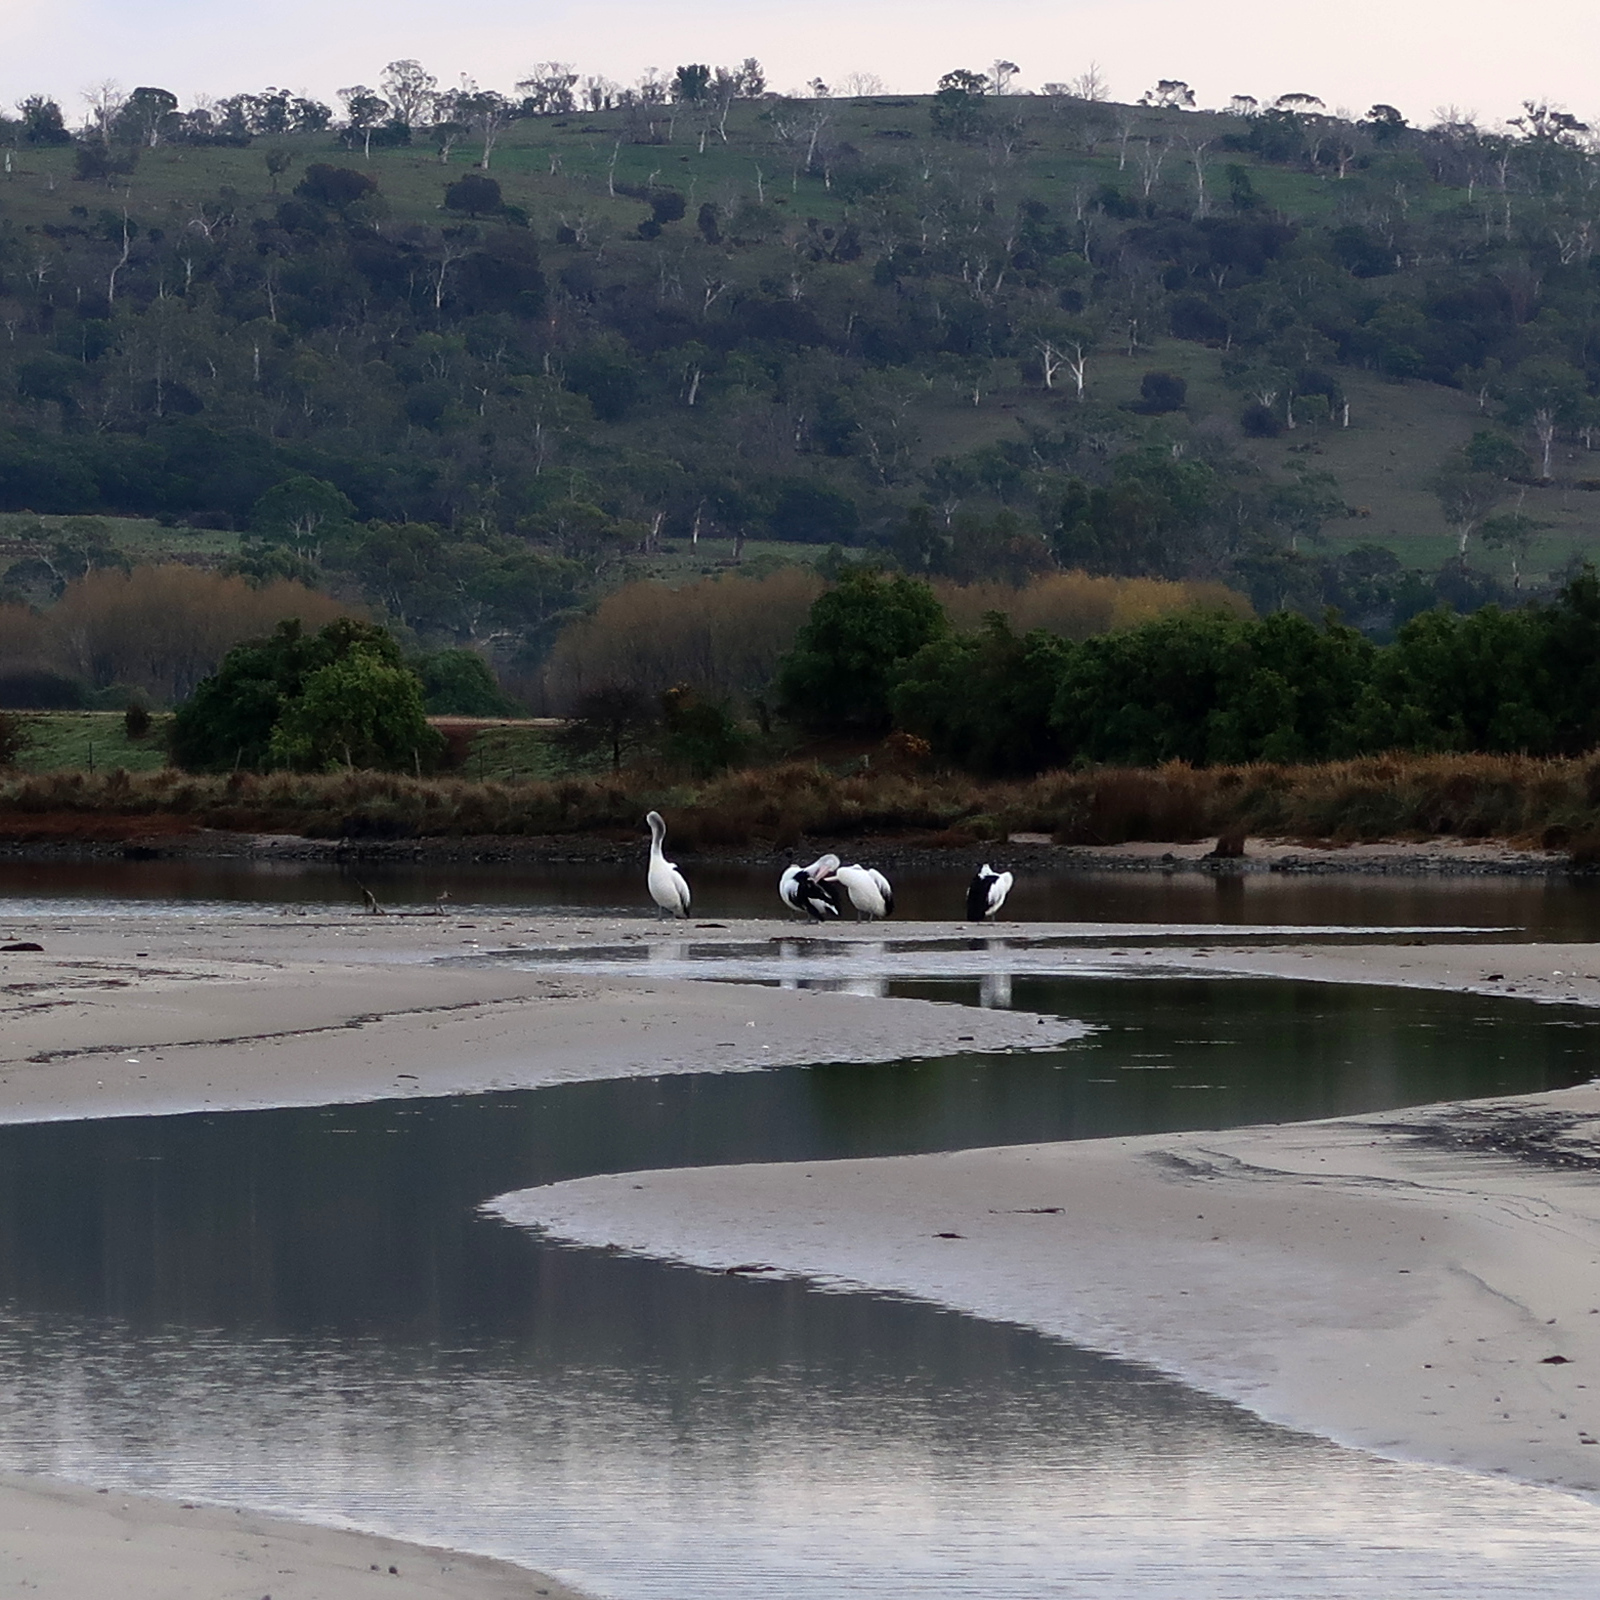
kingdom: Animalia
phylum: Chordata
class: Aves
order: Pelecaniformes
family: Pelecanidae
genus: Pelecanus
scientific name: Pelecanus conspicillatus
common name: Australian pelican
